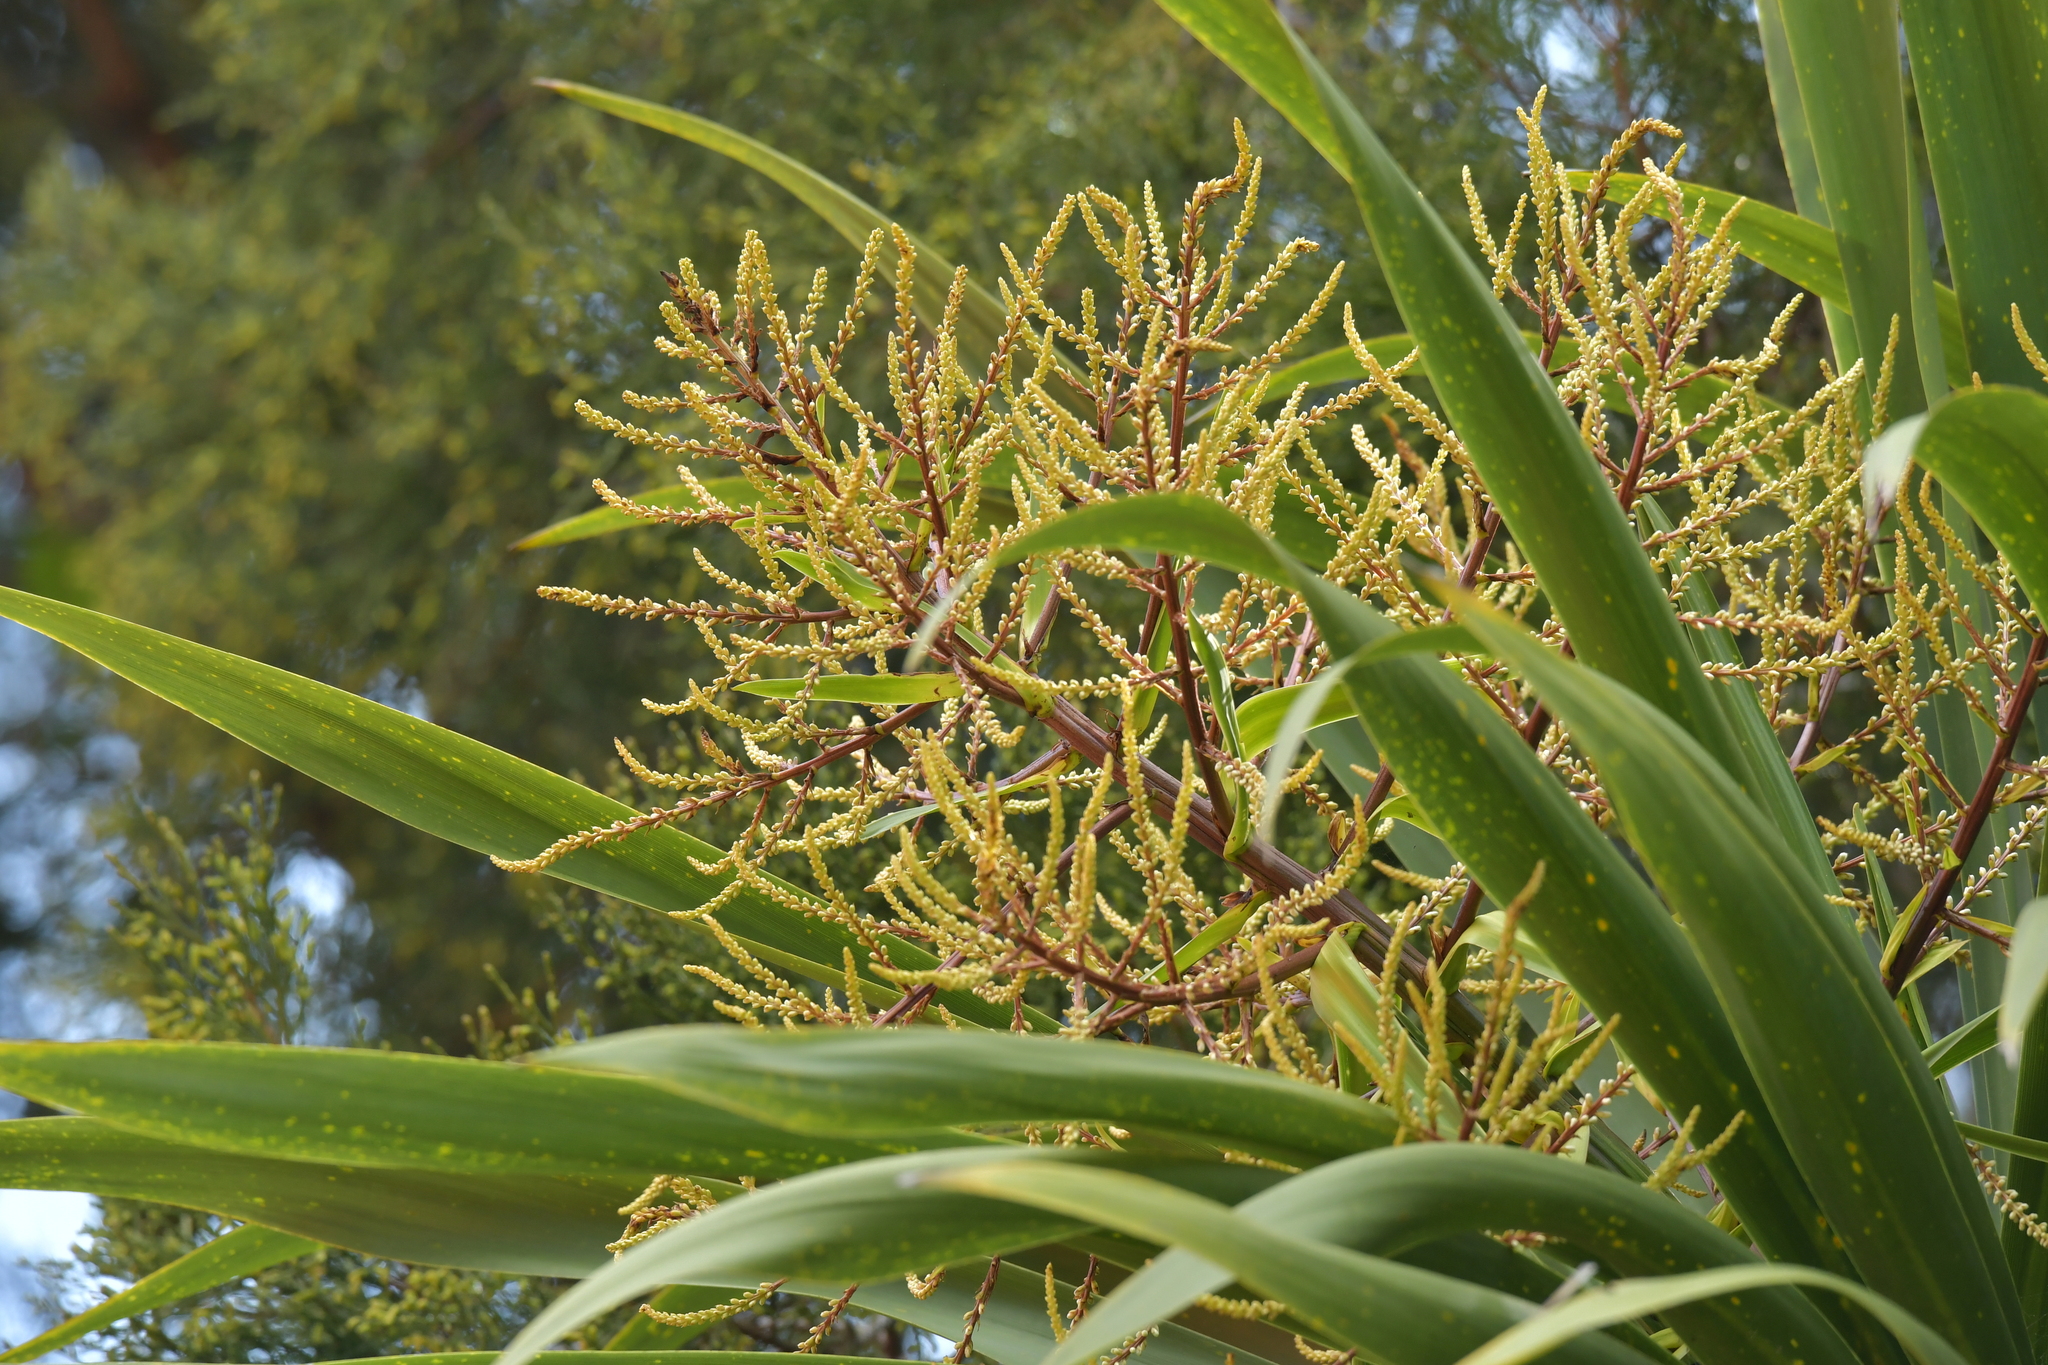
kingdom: Plantae
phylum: Tracheophyta
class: Liliopsida
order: Asparagales
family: Asparagaceae
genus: Cordyline
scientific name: Cordyline australis
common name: Cabbage-palm
